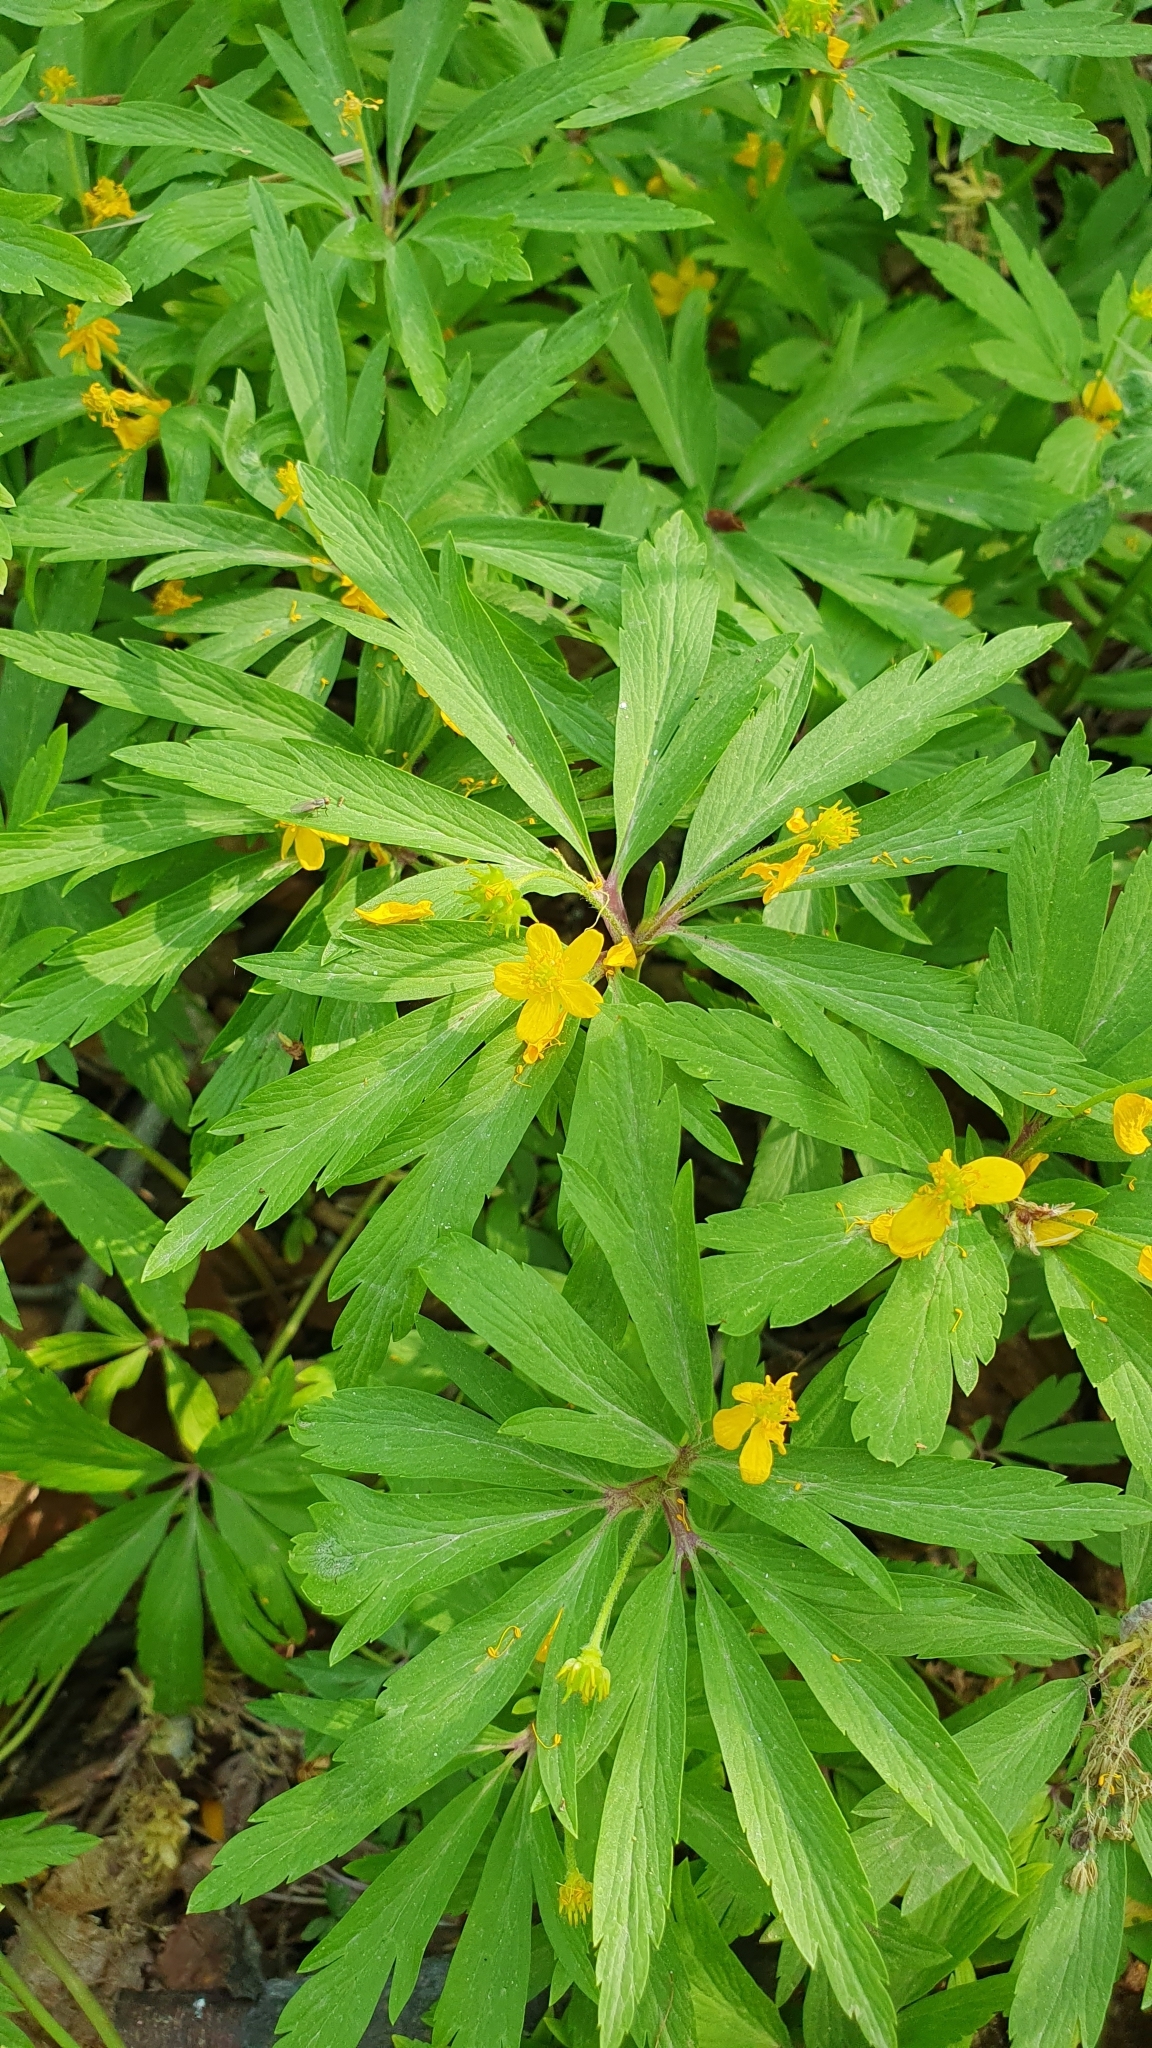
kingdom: Plantae
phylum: Tracheophyta
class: Magnoliopsida
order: Ranunculales
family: Ranunculaceae
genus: Anemone
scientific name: Anemone ranunculoides
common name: Yellow anemone
